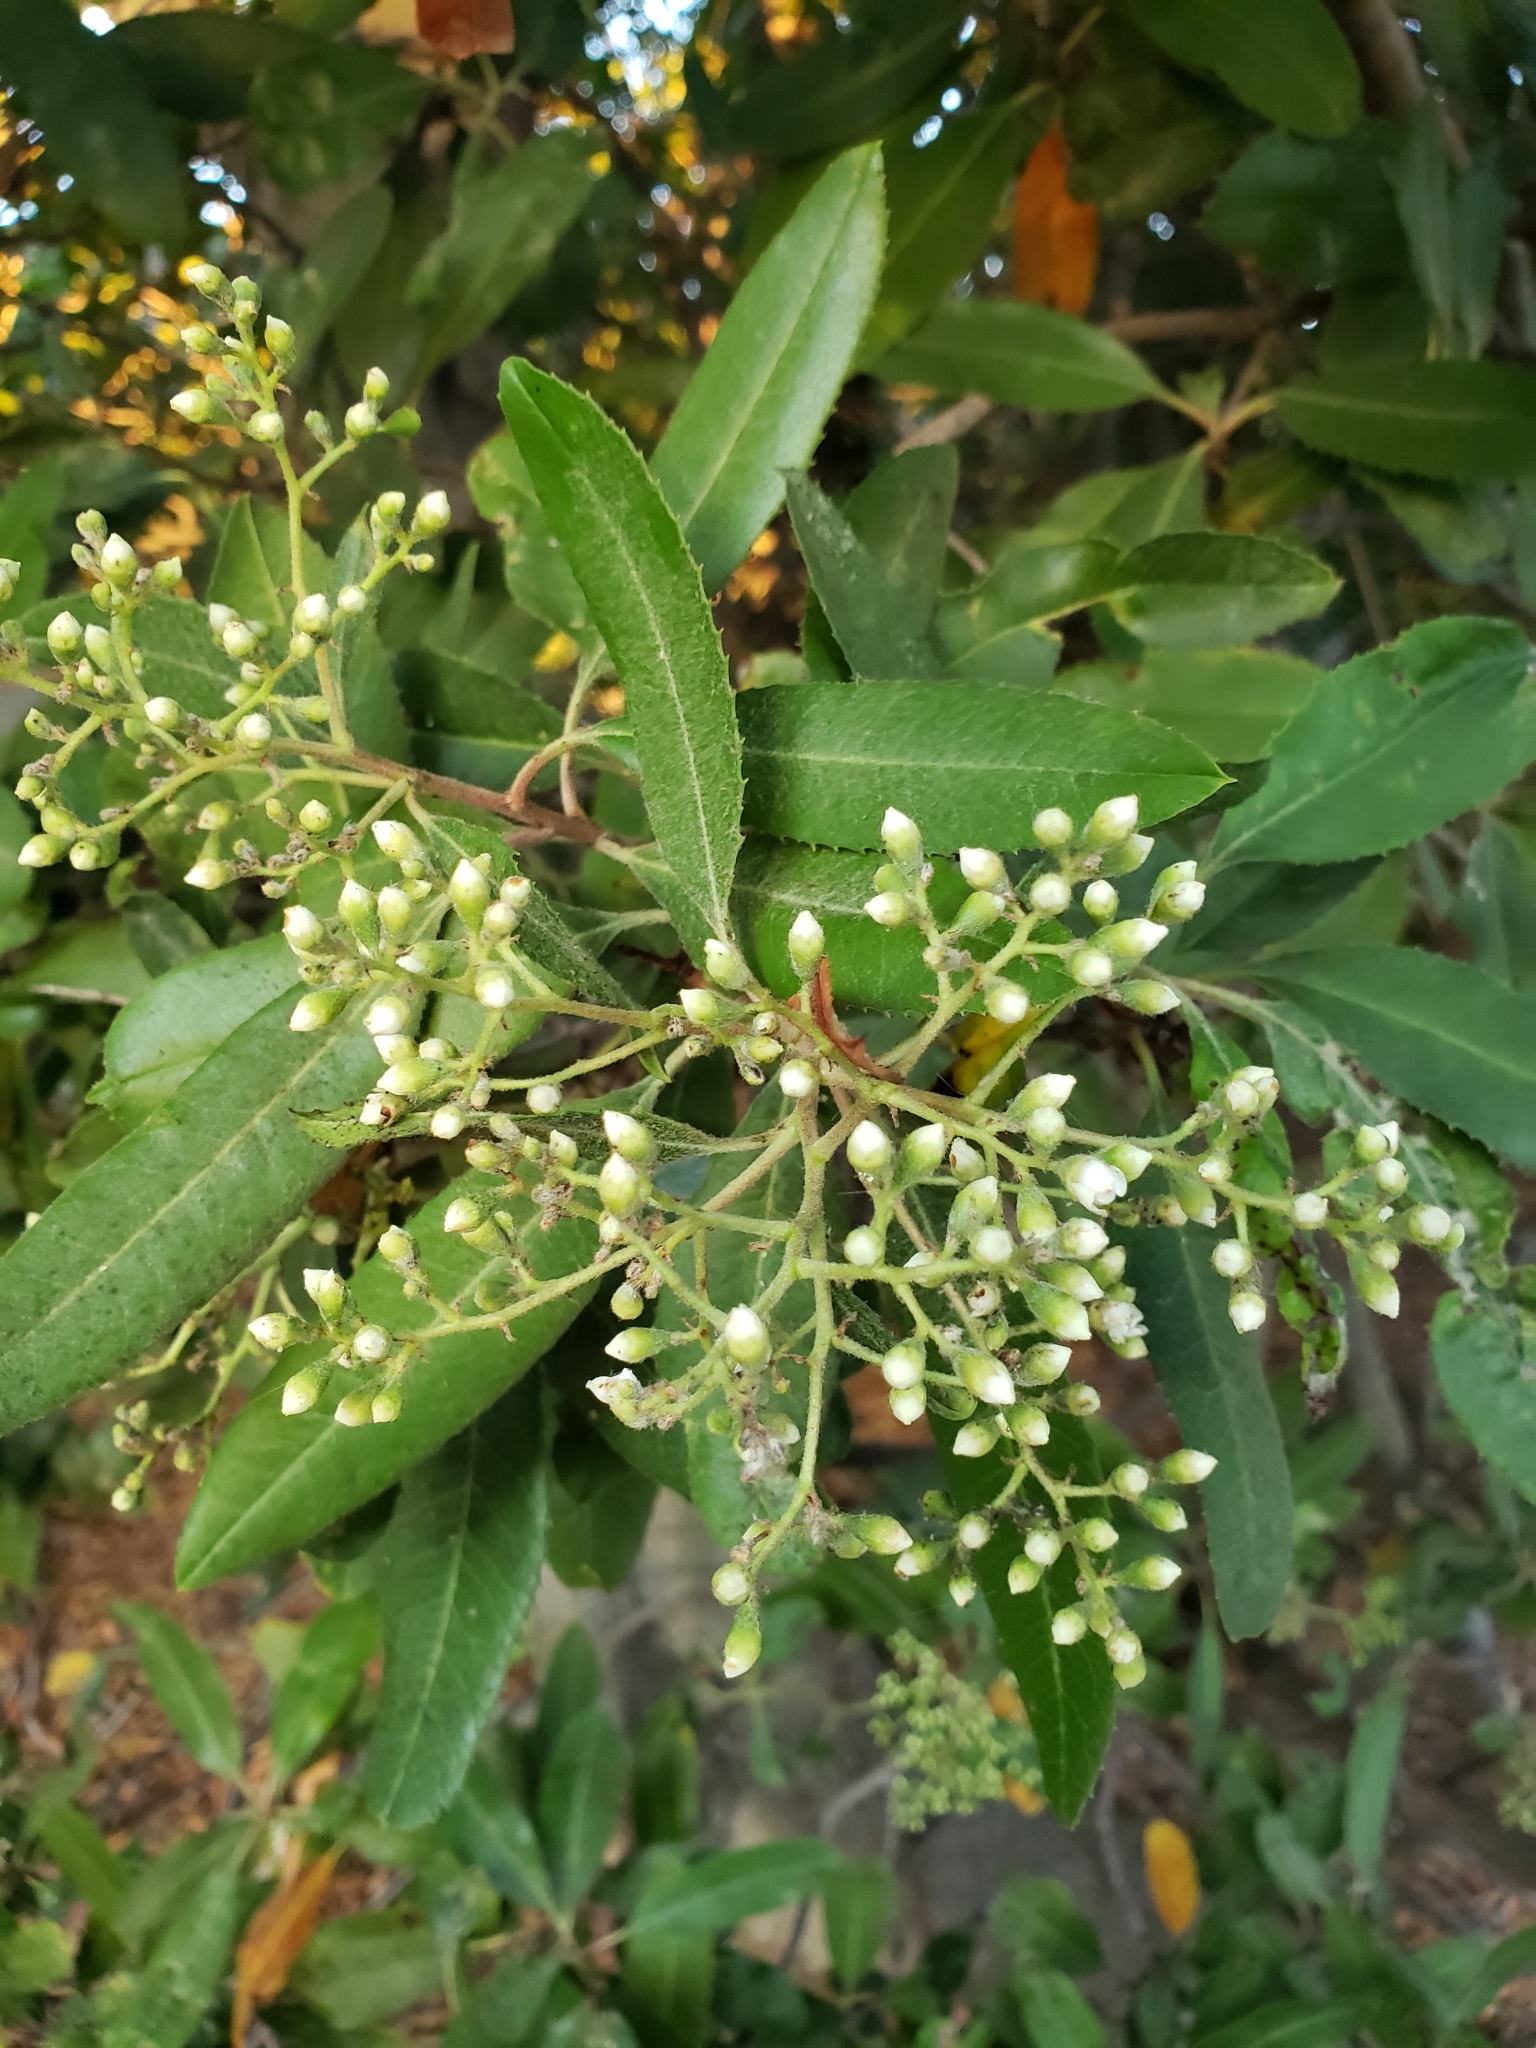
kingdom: Plantae
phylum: Tracheophyta
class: Magnoliopsida
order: Rosales
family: Rosaceae
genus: Heteromeles
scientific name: Heteromeles arbutifolia
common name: California-holly
